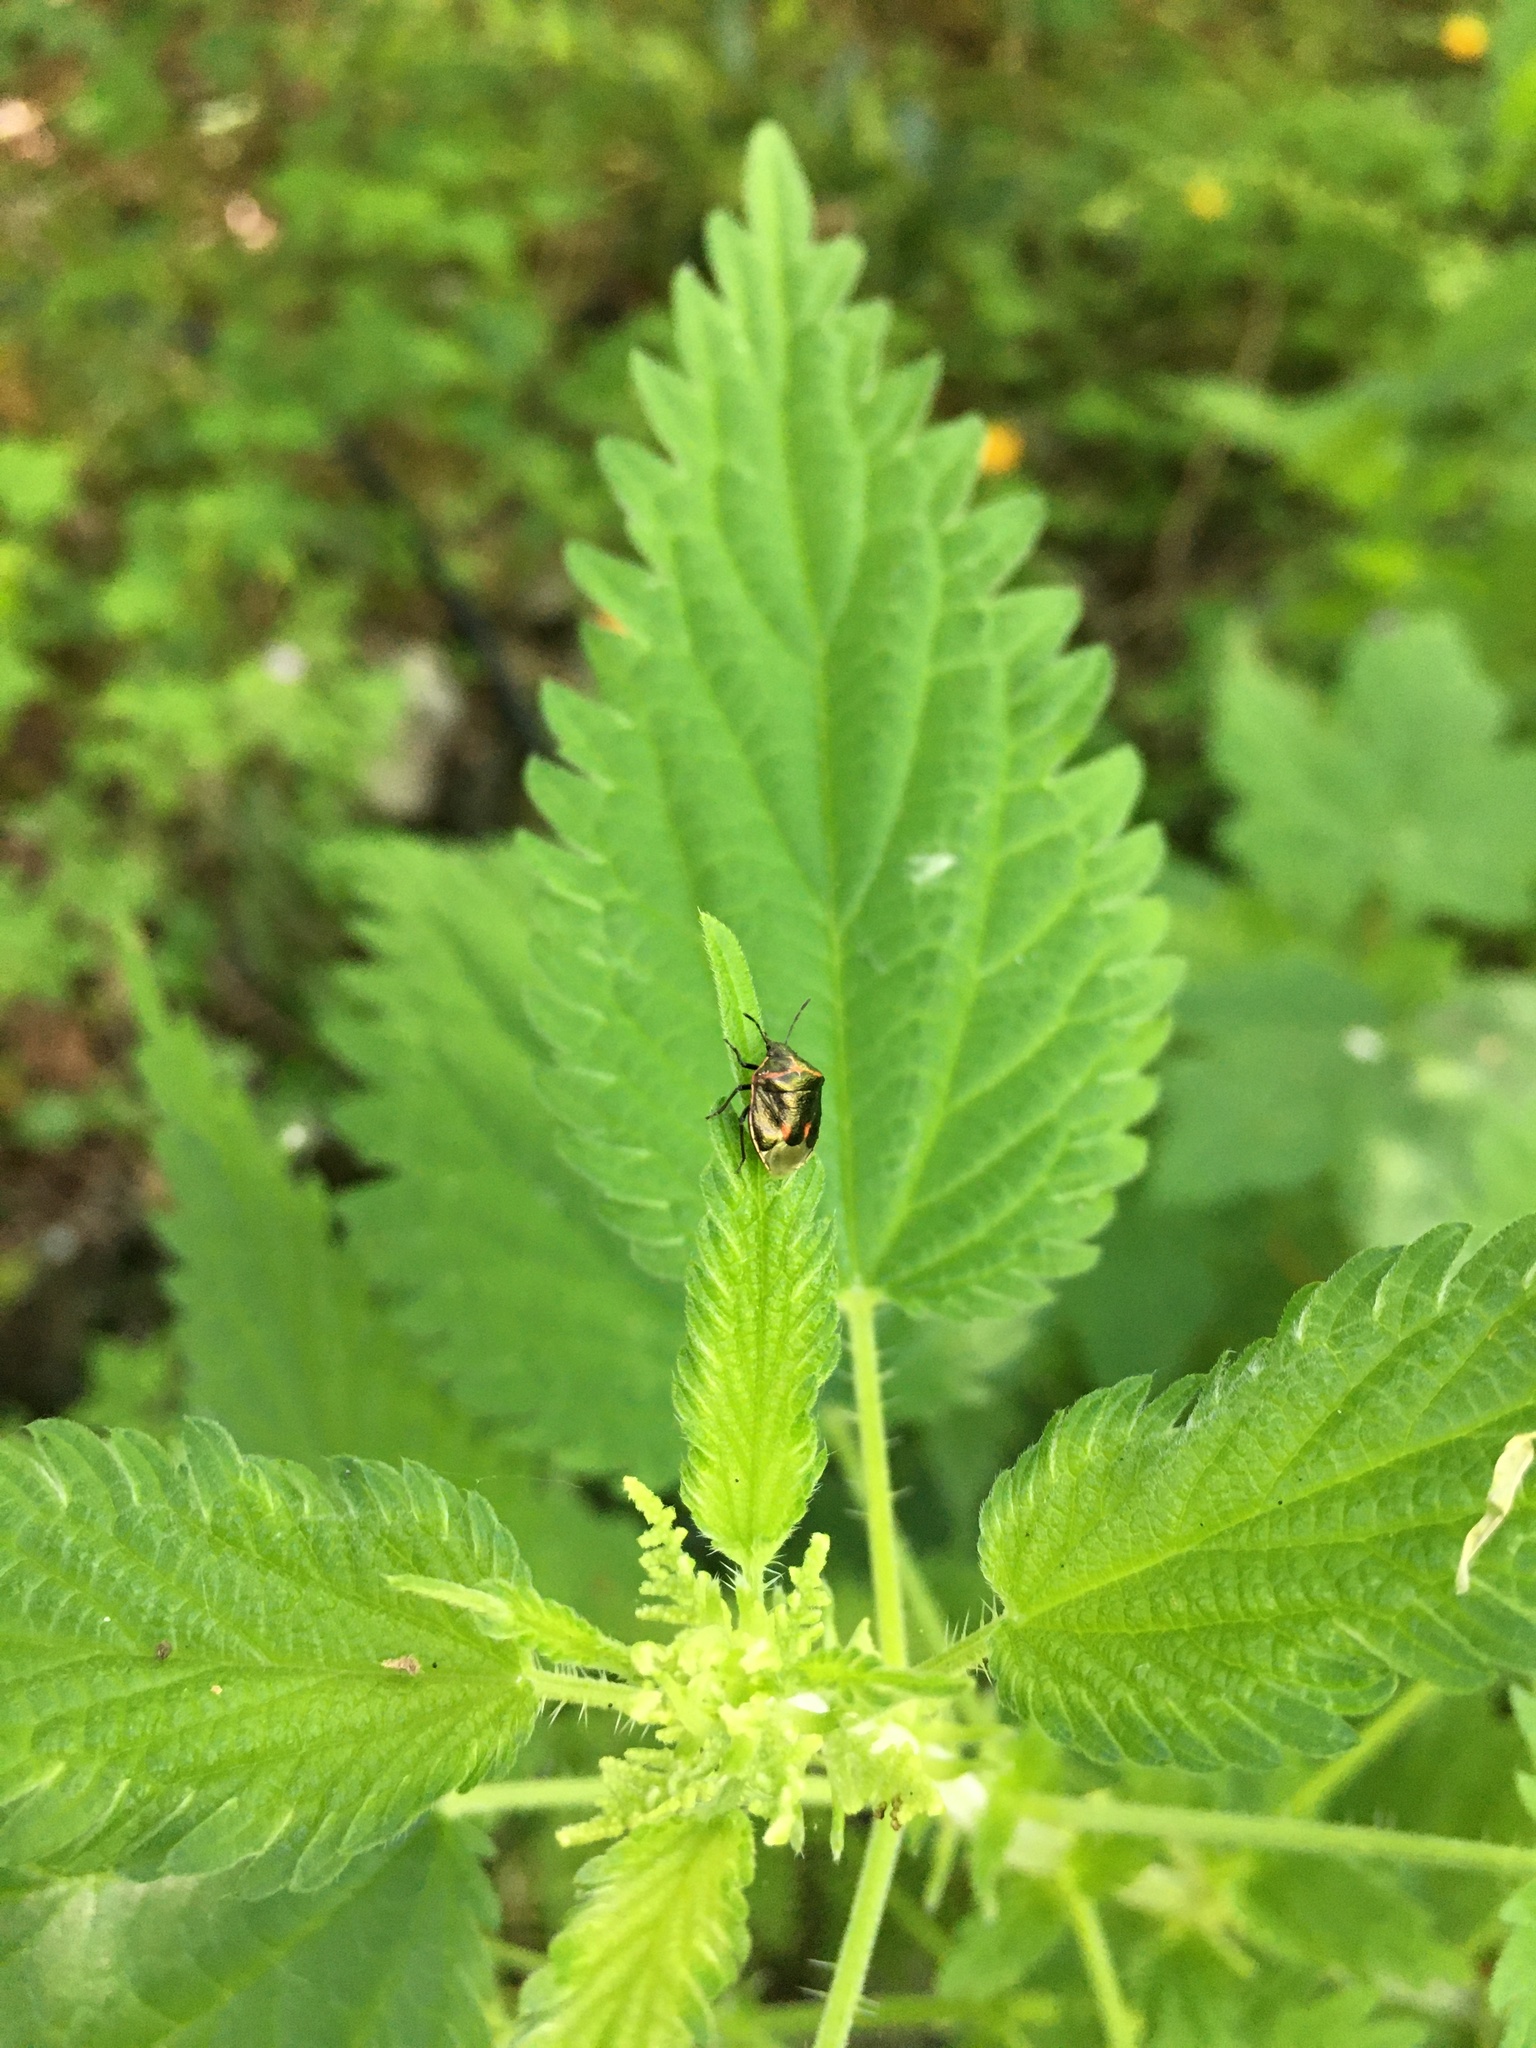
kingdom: Animalia
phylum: Arthropoda
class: Insecta
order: Hemiptera
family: Pentatomidae
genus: Cosmopepla
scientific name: Cosmopepla lintneriana
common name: Twice-stabbed stink bug
